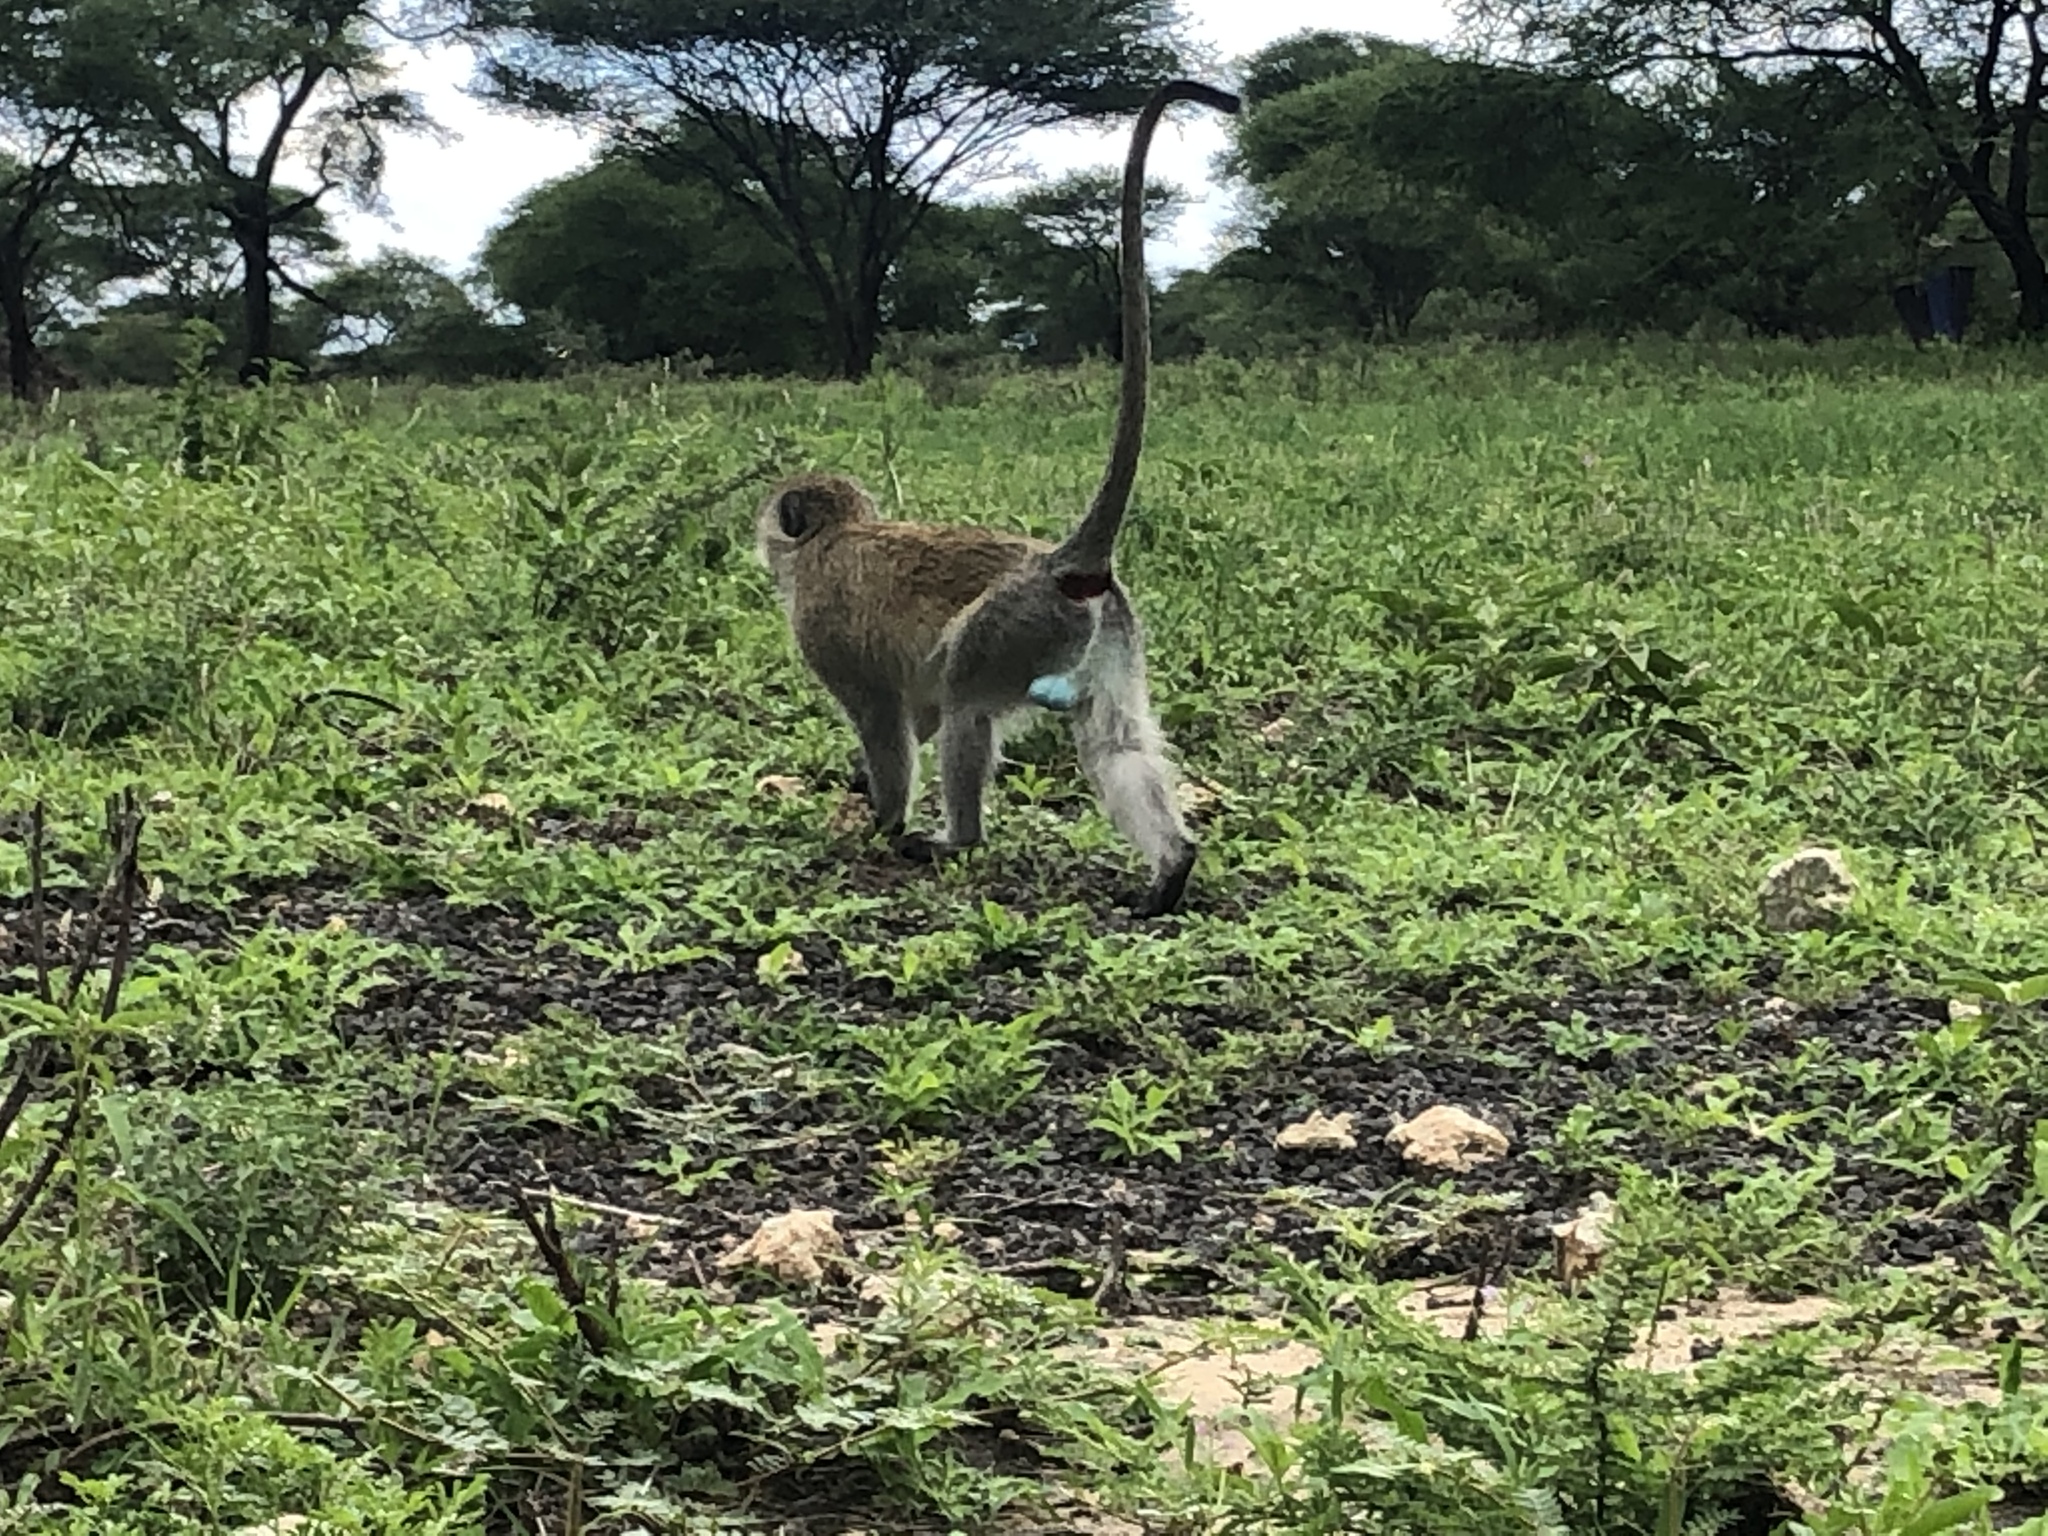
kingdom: Animalia
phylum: Chordata
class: Mammalia
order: Primates
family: Cercopithecidae
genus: Chlorocebus
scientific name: Chlorocebus pygerythrus
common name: Vervet monkey
